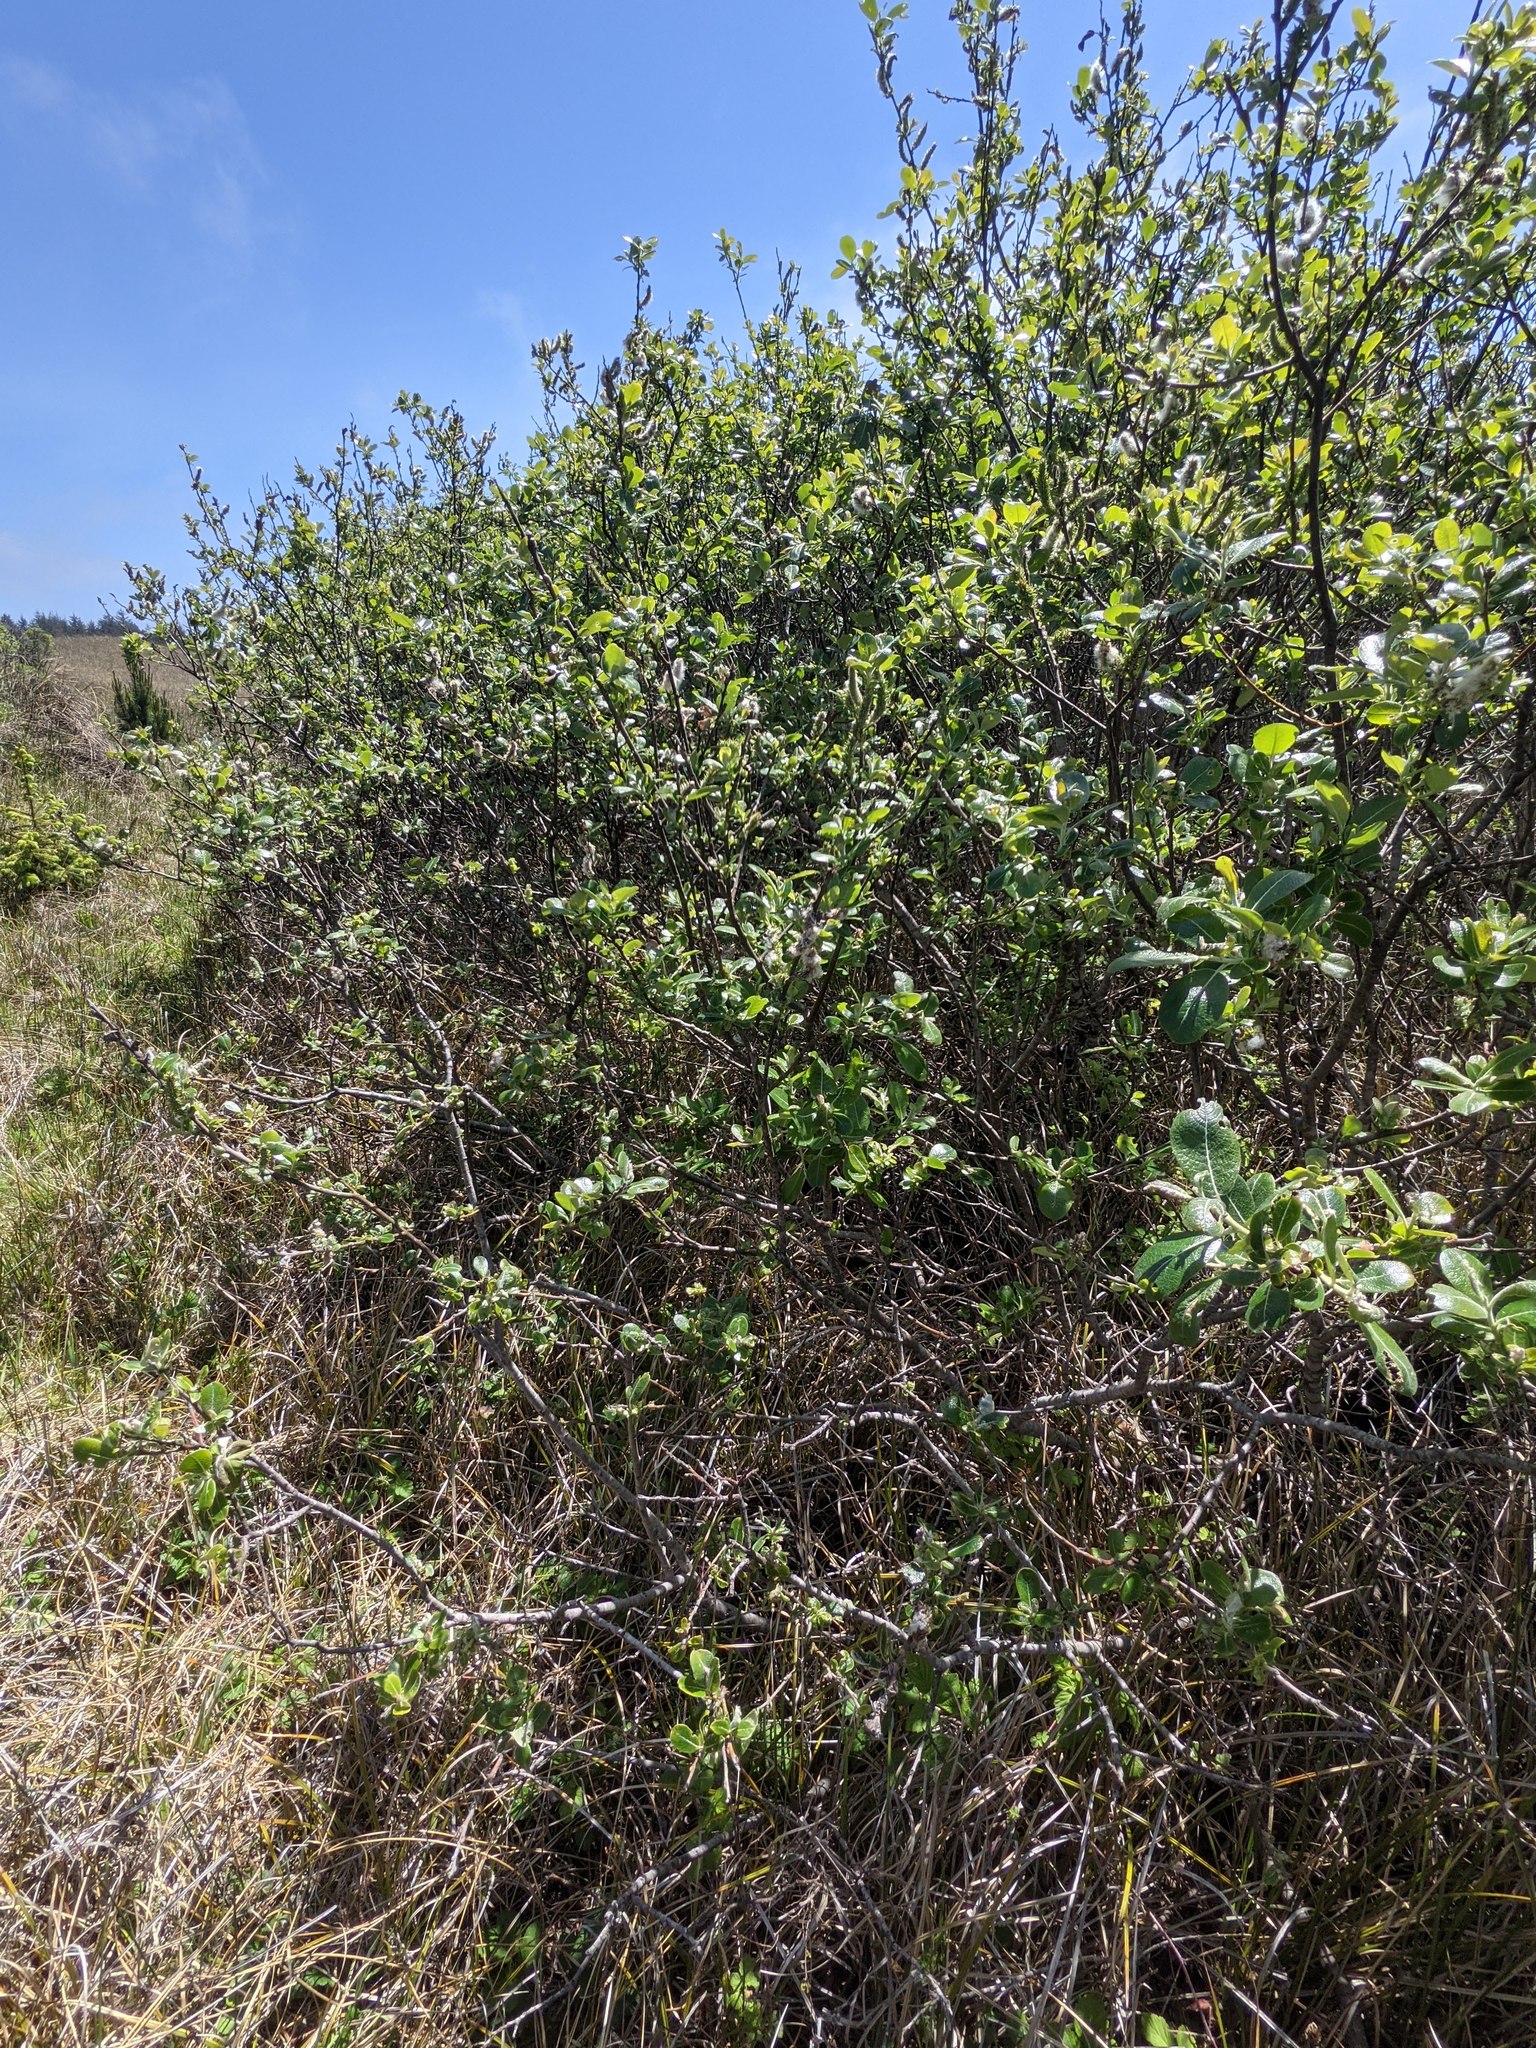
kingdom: Plantae
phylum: Tracheophyta
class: Magnoliopsida
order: Malpighiales
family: Salicaceae
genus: Salix
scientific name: Salix hookeriana
